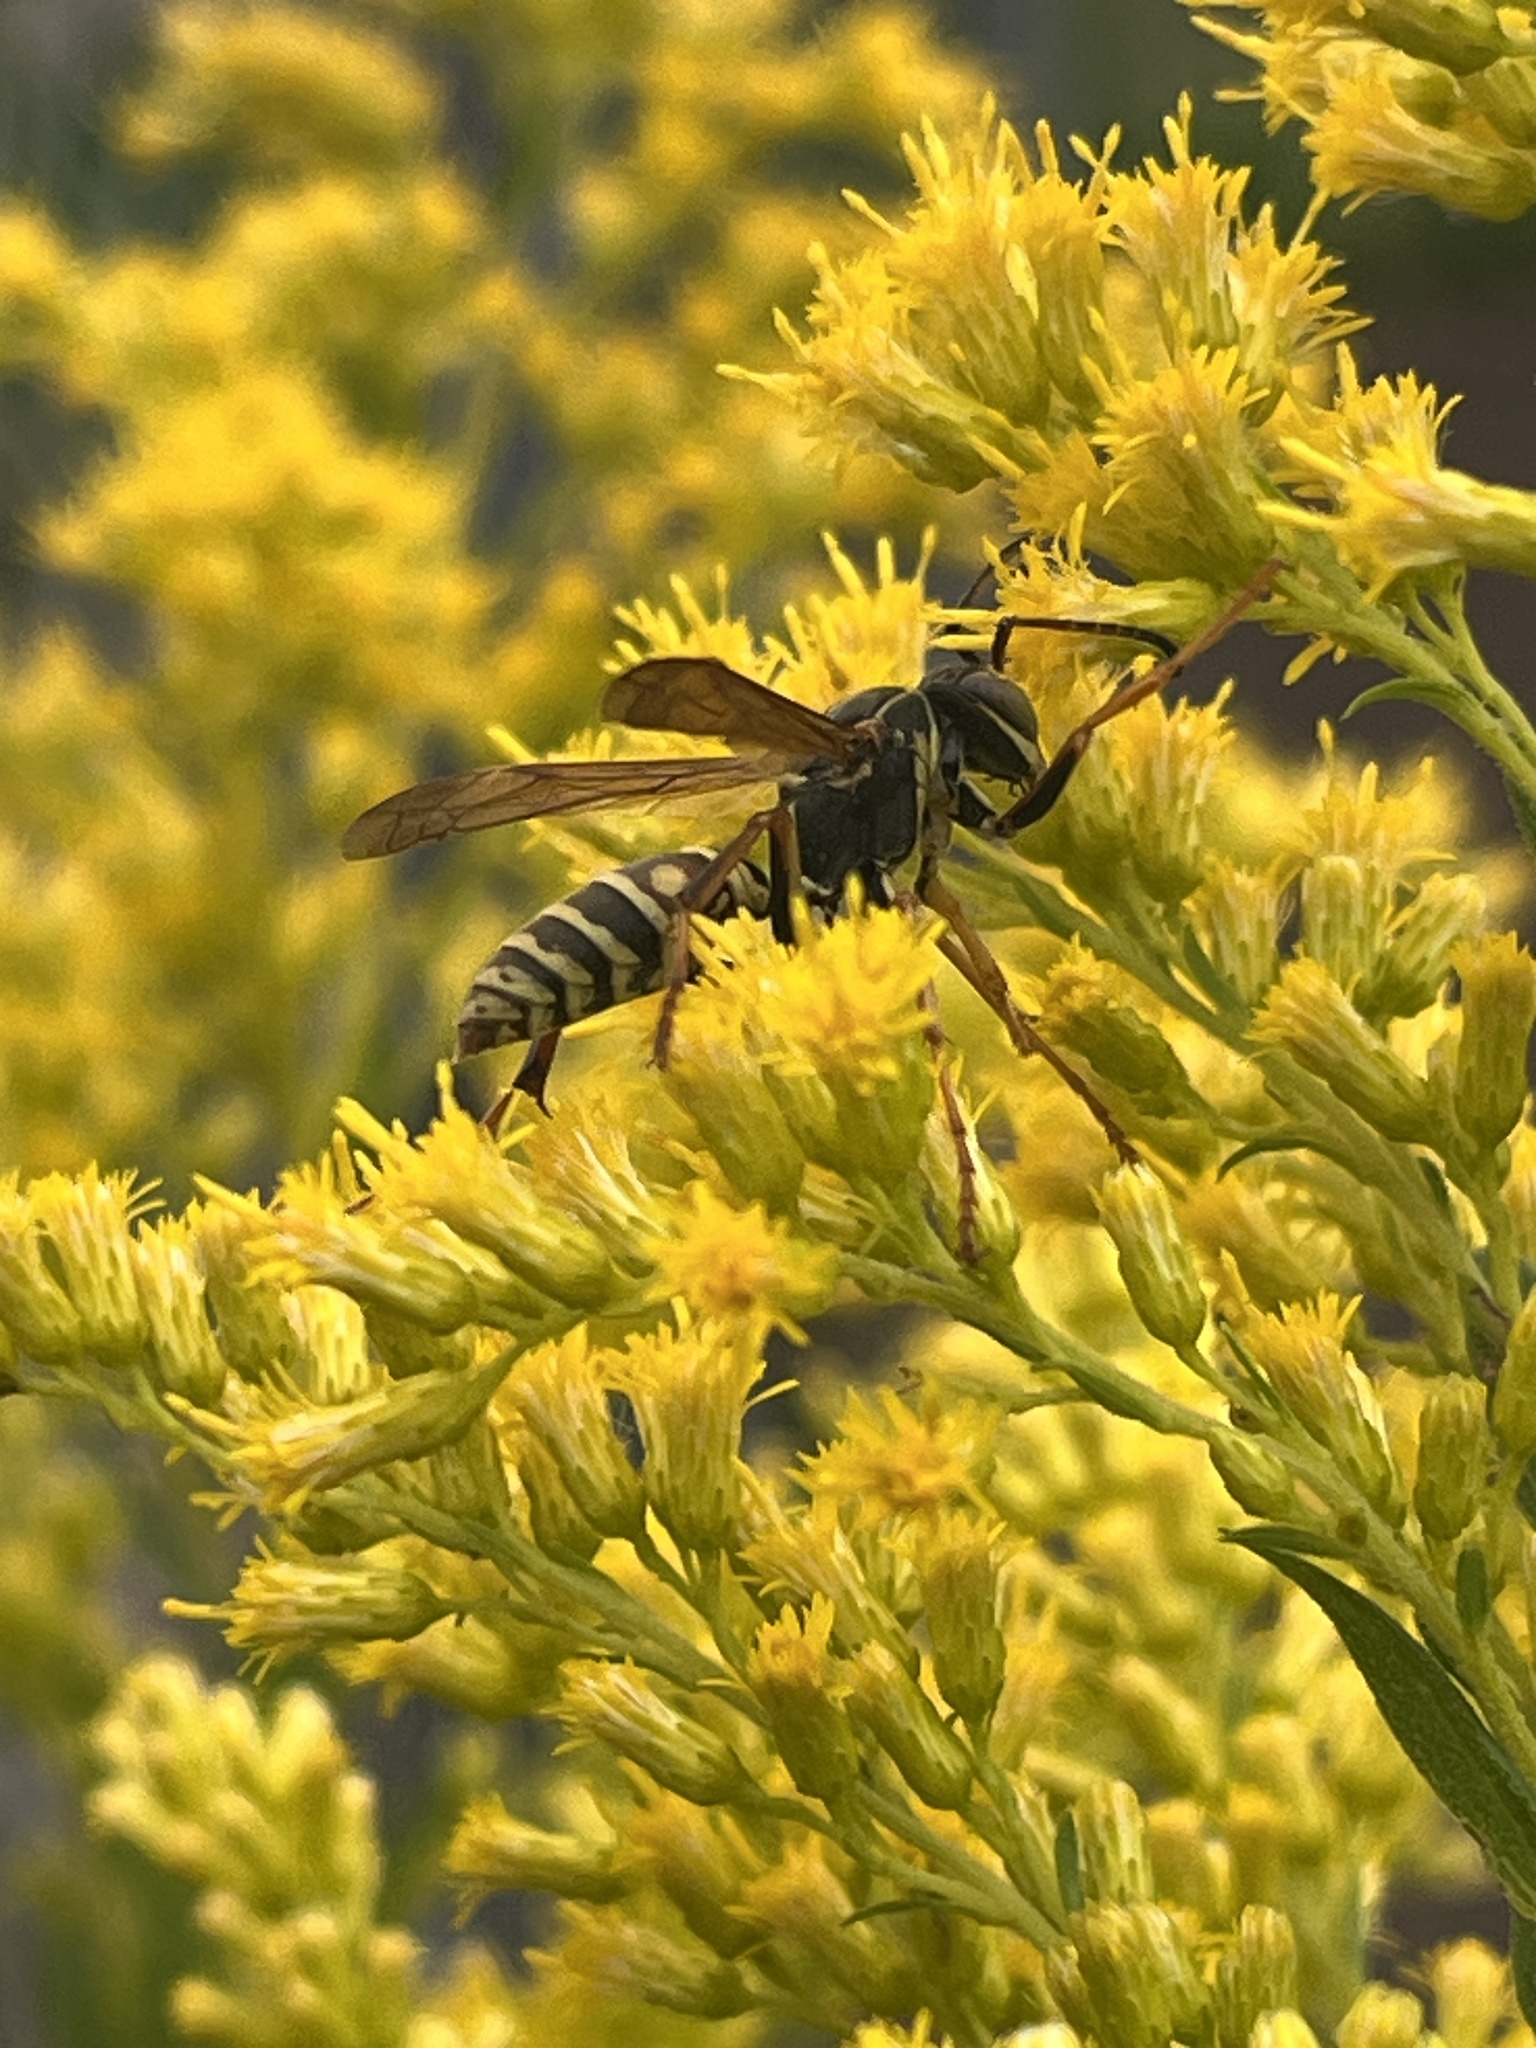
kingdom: Animalia
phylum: Arthropoda
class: Insecta
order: Hymenoptera
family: Eumenidae
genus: Polistes
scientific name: Polistes fuscatus
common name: Dark paper wasp
